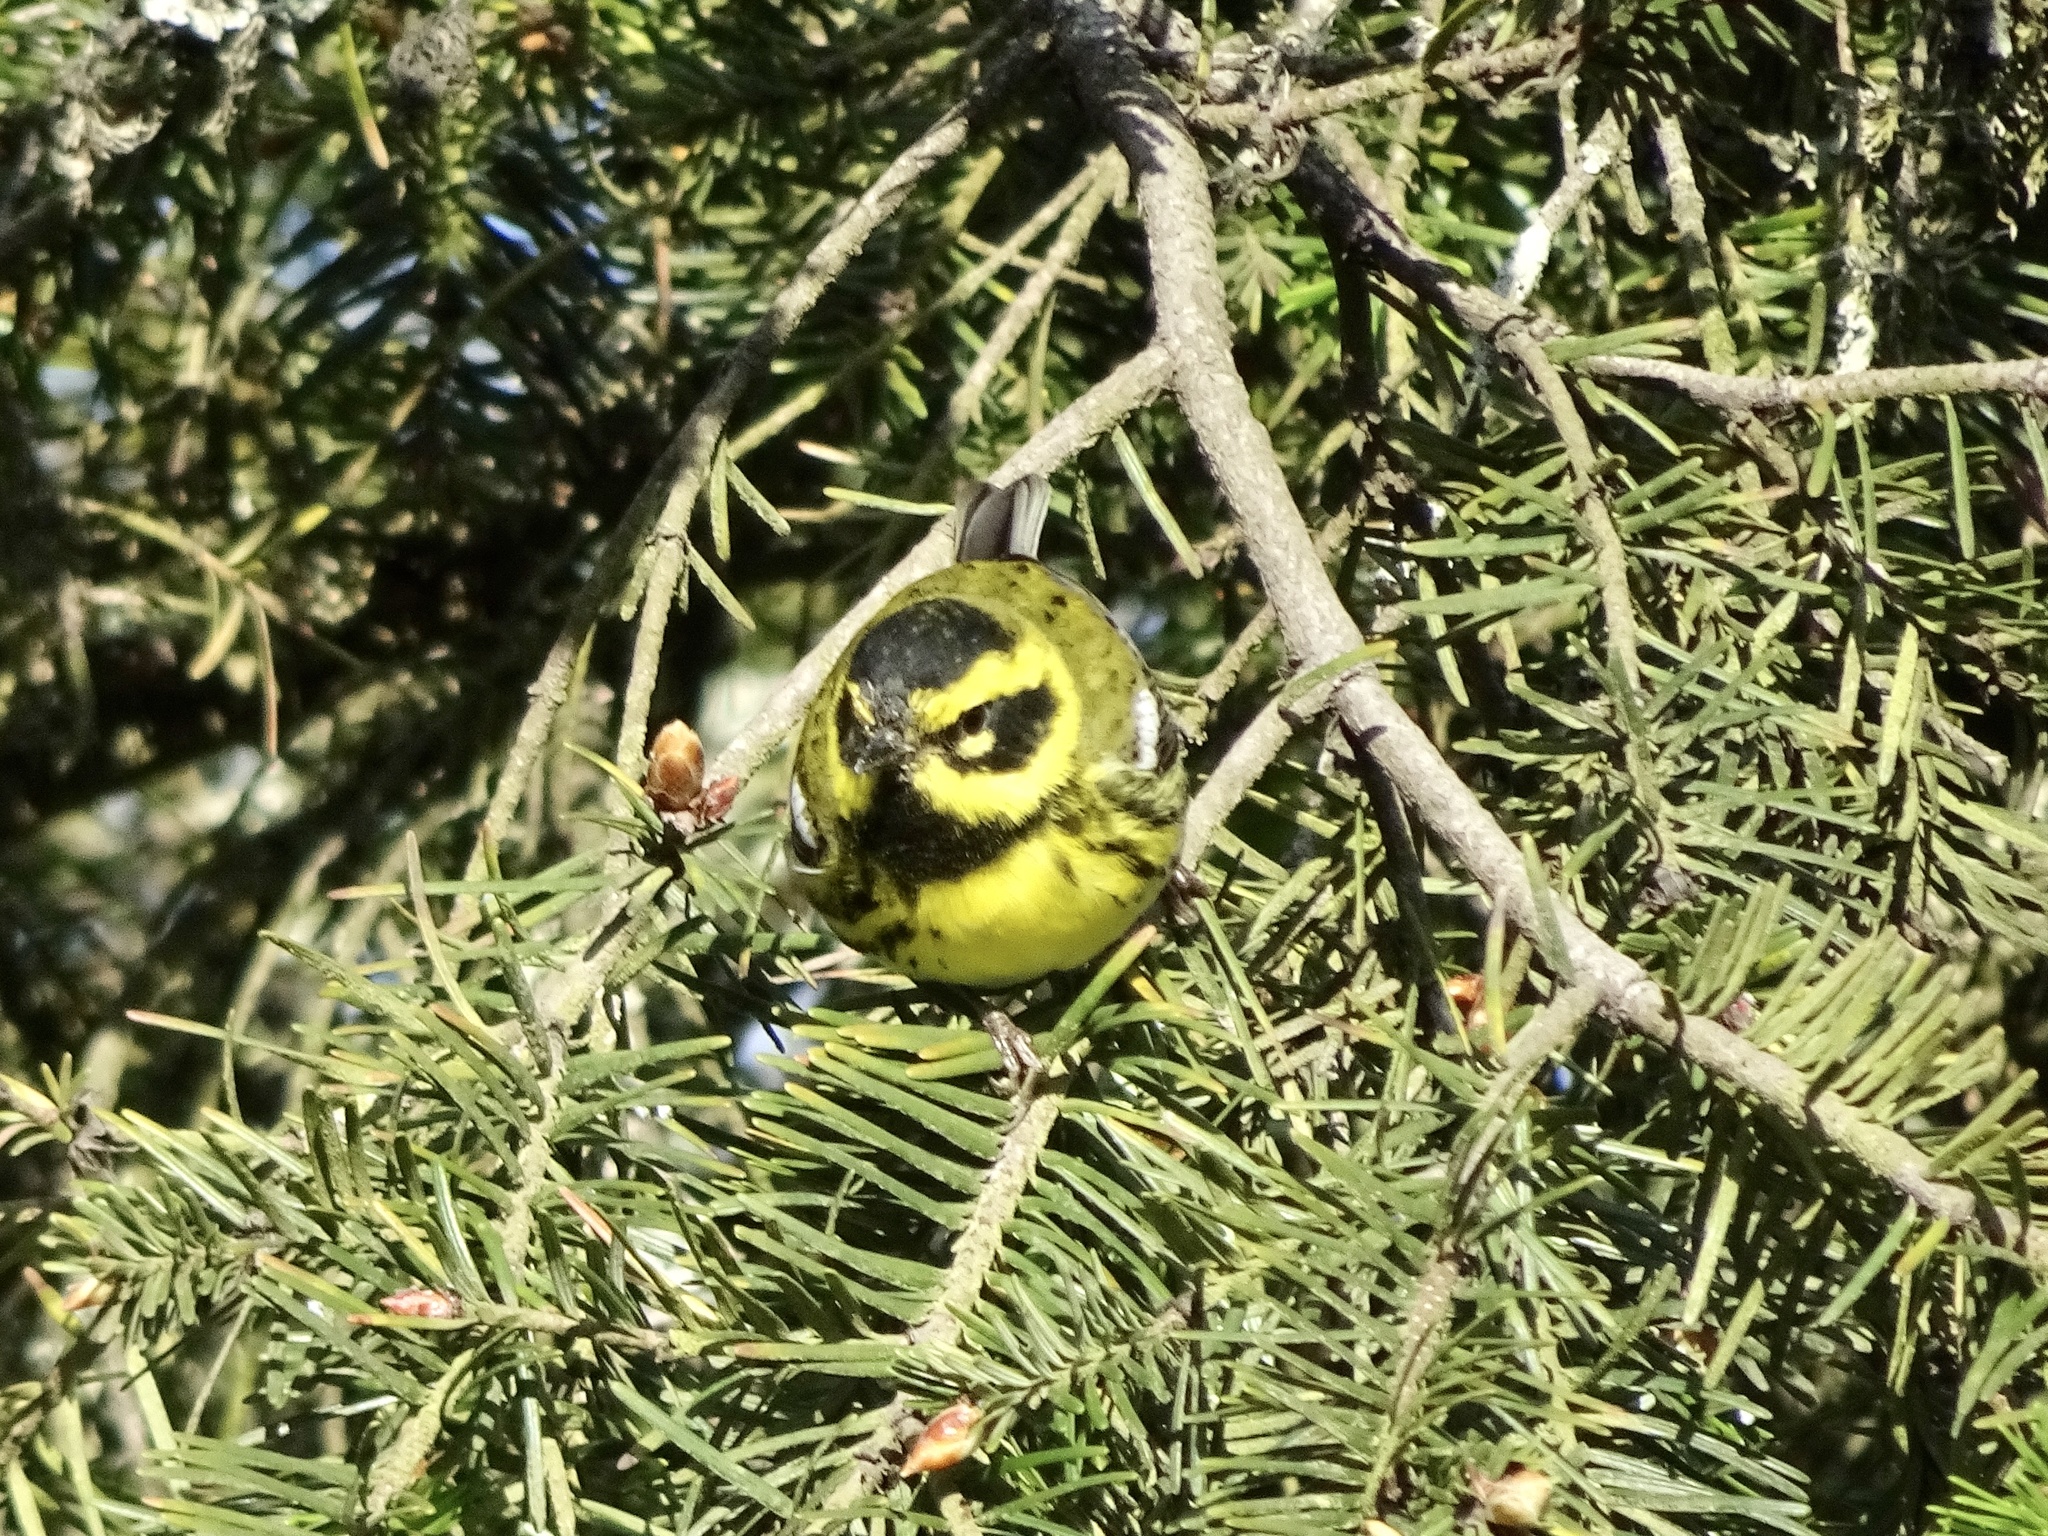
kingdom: Animalia
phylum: Chordata
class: Aves
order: Passeriformes
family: Parulidae
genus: Setophaga
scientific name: Setophaga townsendi
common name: Townsend's warbler
